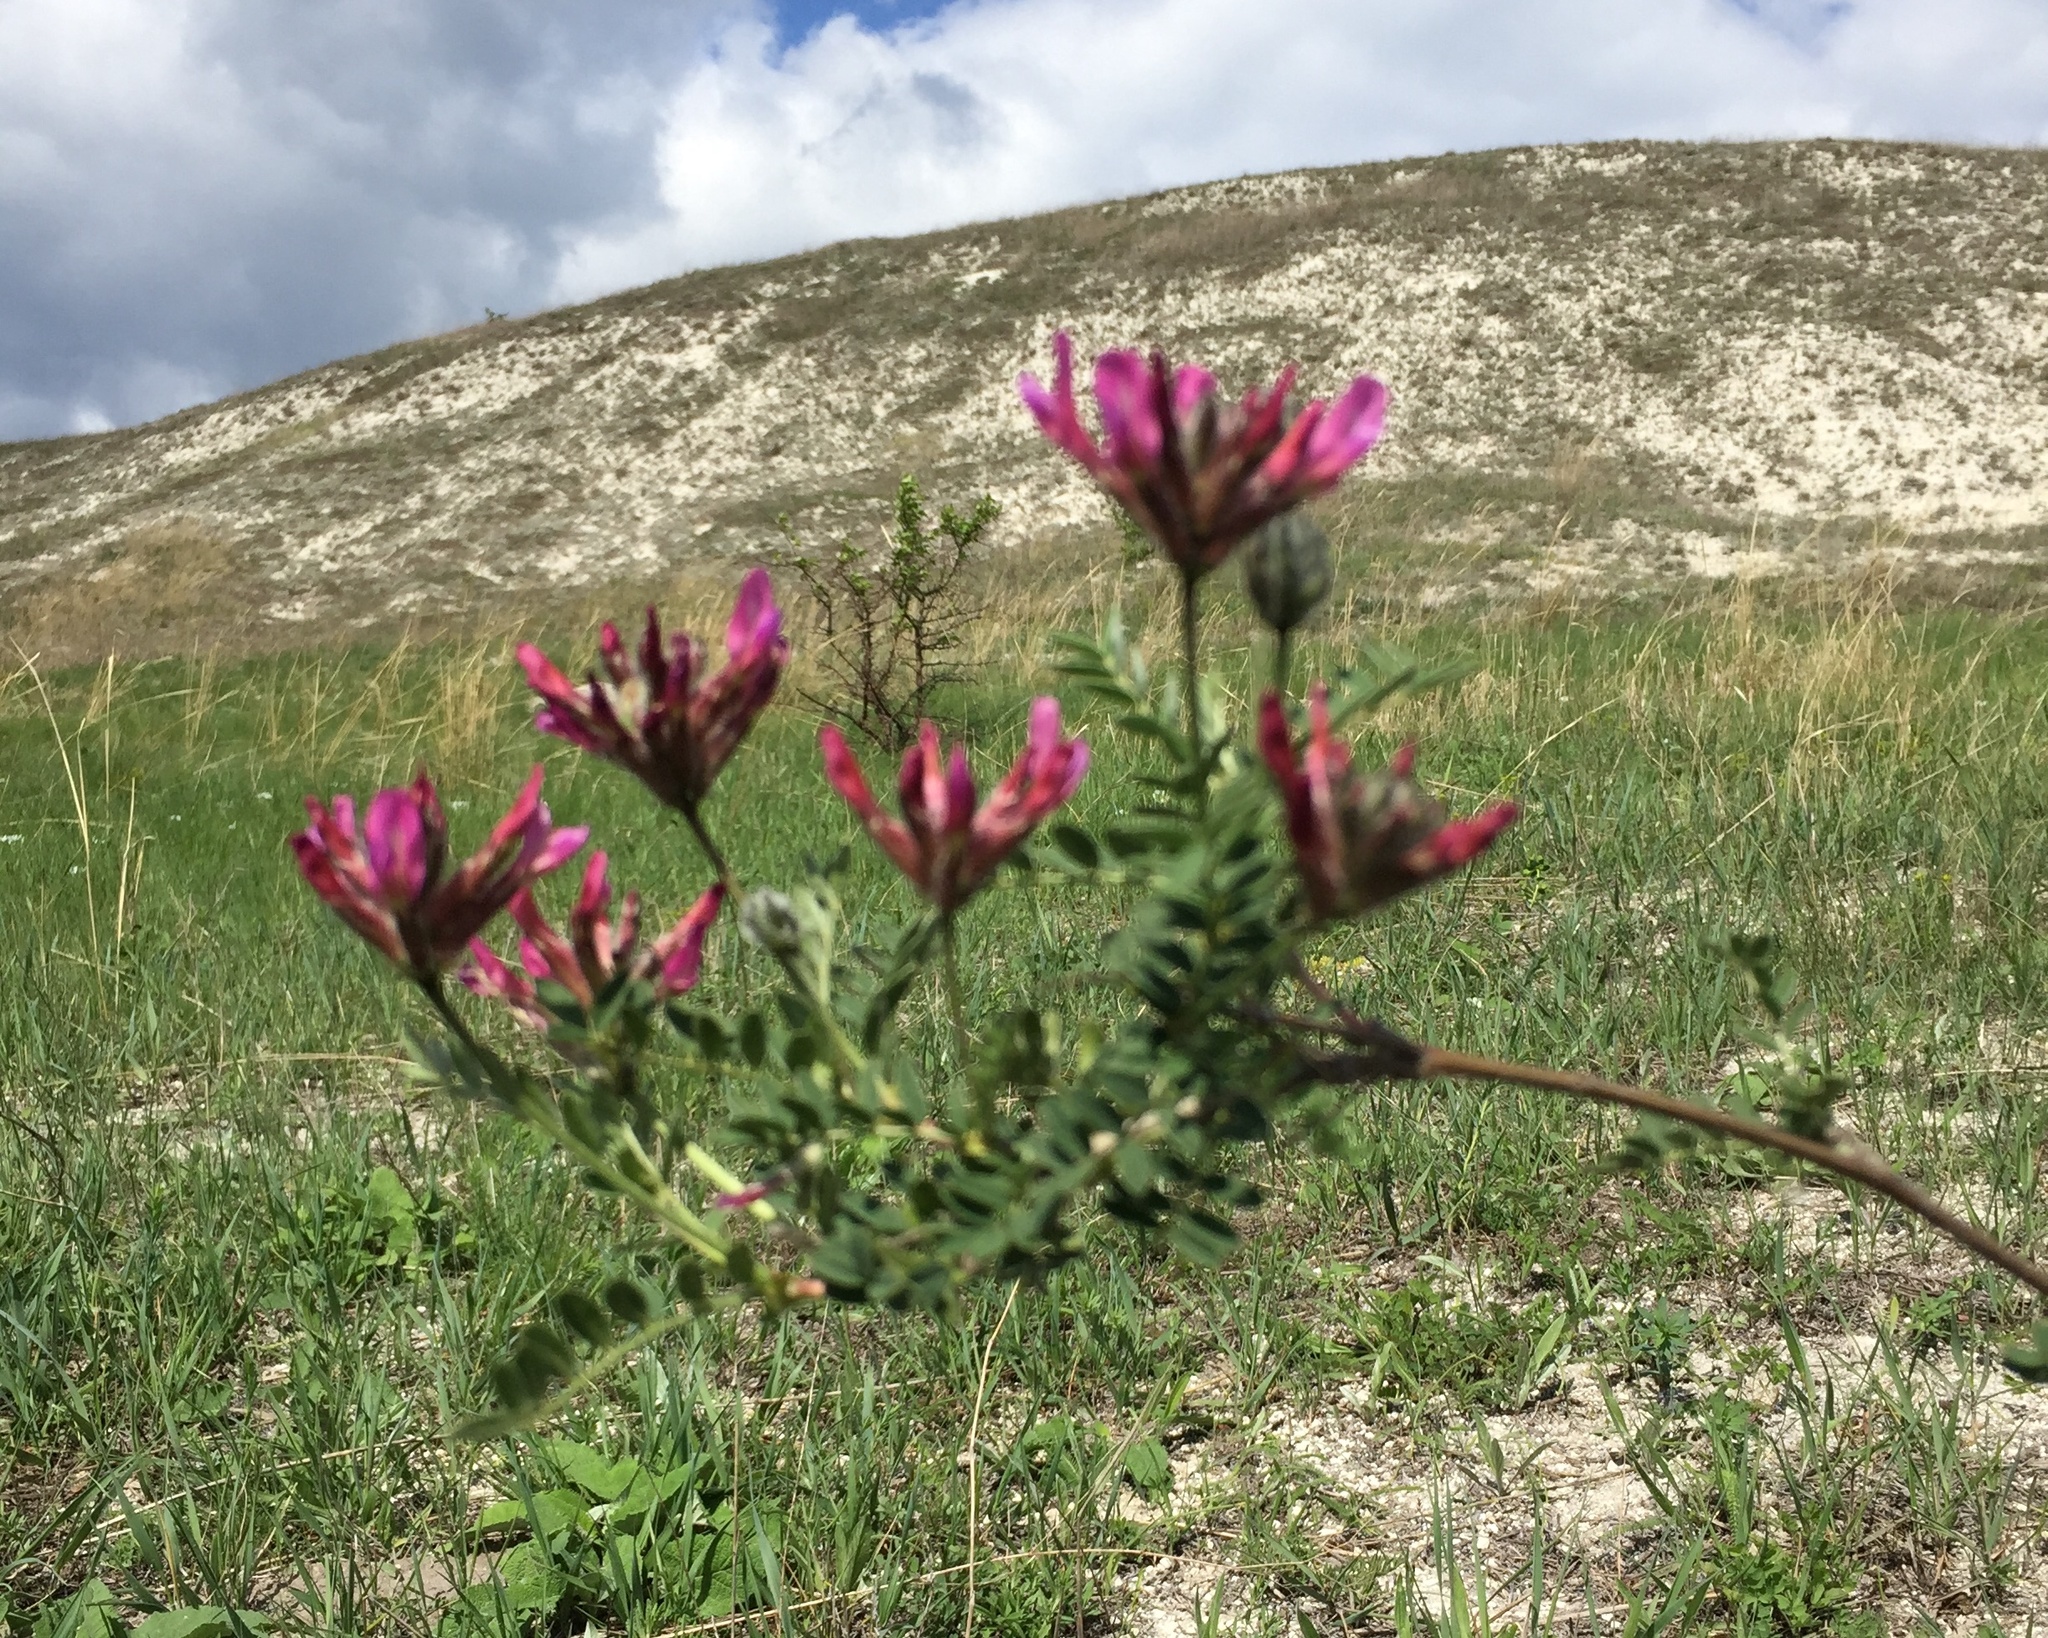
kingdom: Plantae
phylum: Tracheophyta
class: Magnoliopsida
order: Fabales
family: Fabaceae
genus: Astragalus
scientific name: Astragalus cornutus
